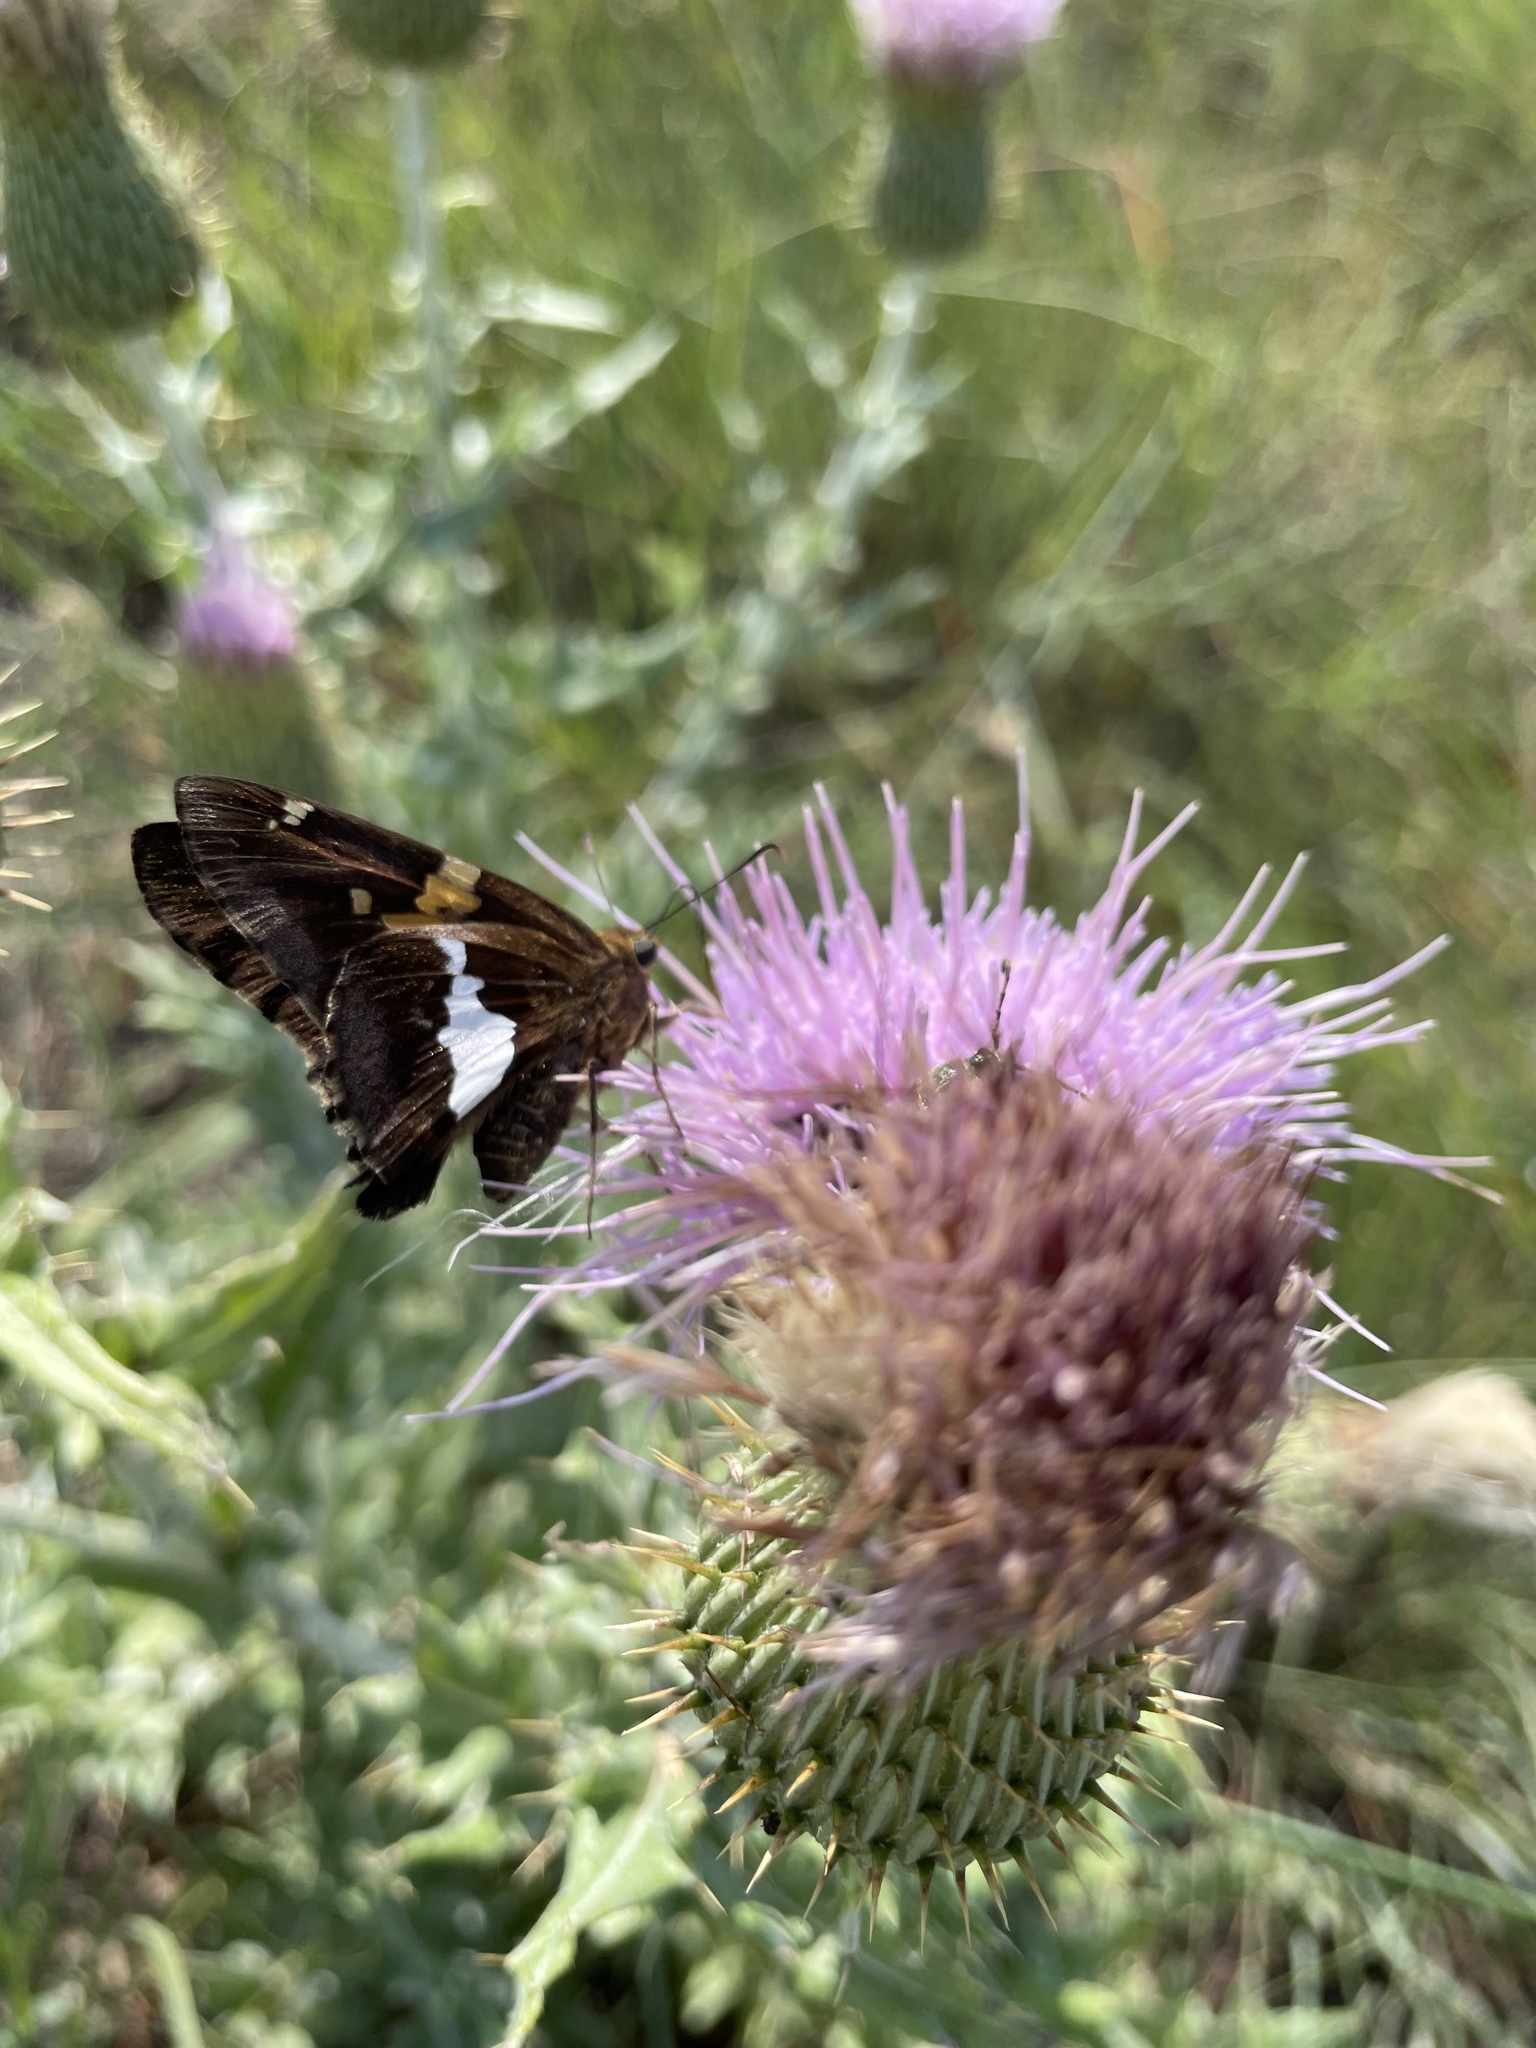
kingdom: Animalia
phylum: Arthropoda
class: Insecta
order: Lepidoptera
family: Hesperiidae
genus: Epargyreus
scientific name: Epargyreus clarus
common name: Silver-spotted skipper
